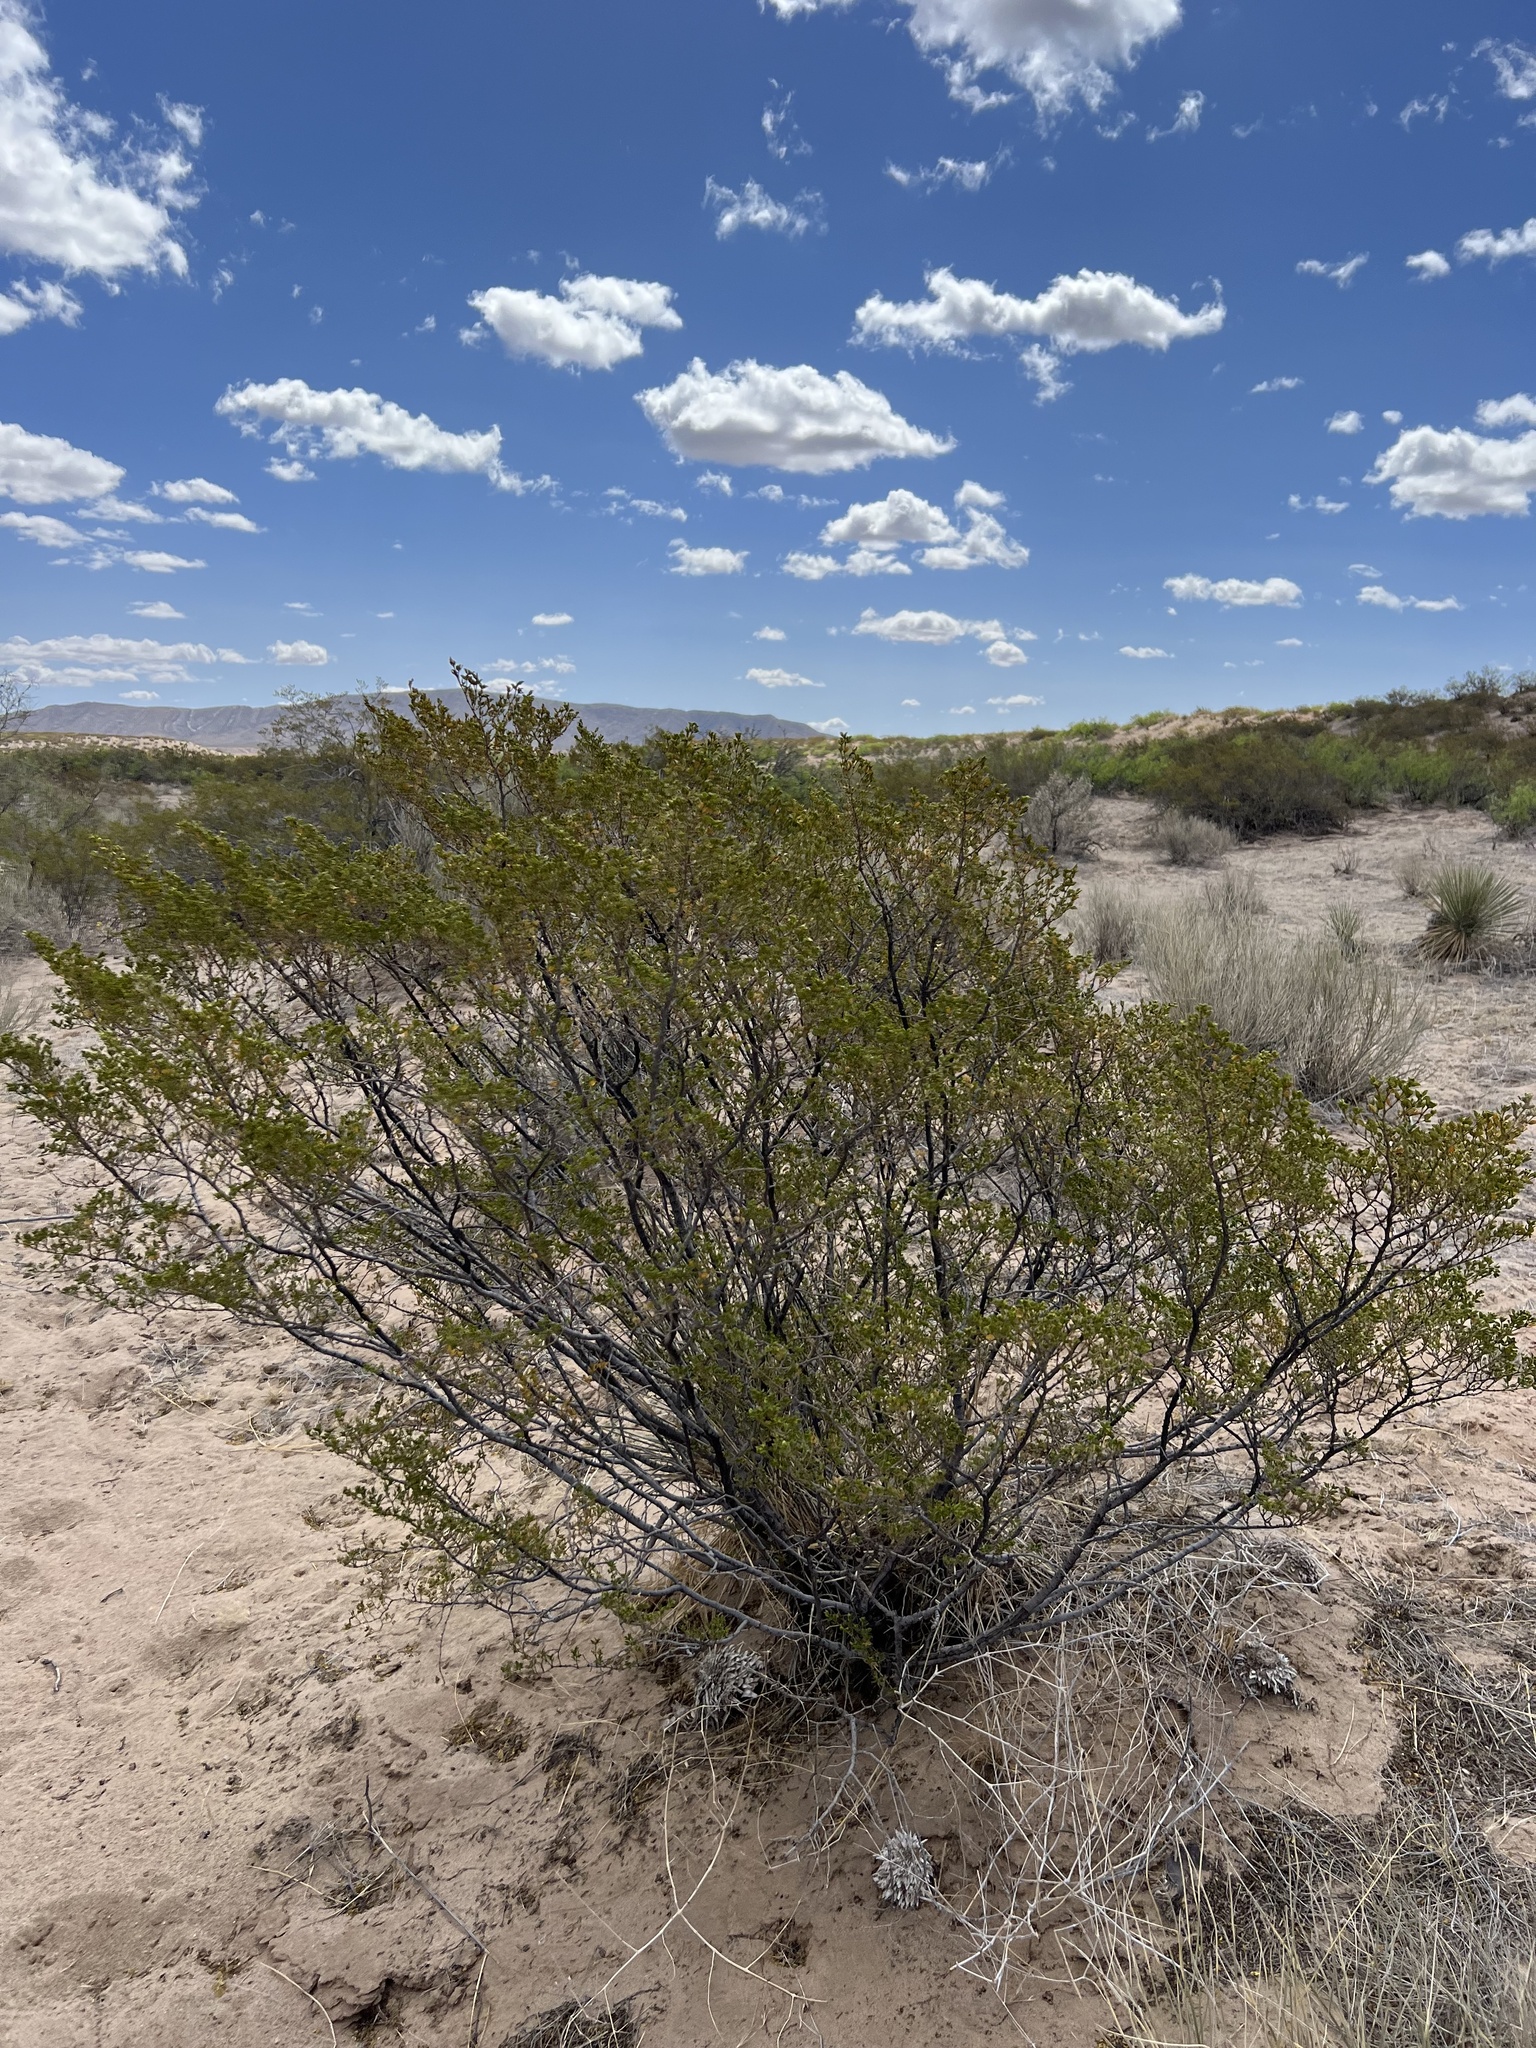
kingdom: Plantae
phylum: Tracheophyta
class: Magnoliopsida
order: Zygophyllales
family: Zygophyllaceae
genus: Larrea
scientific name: Larrea tridentata
